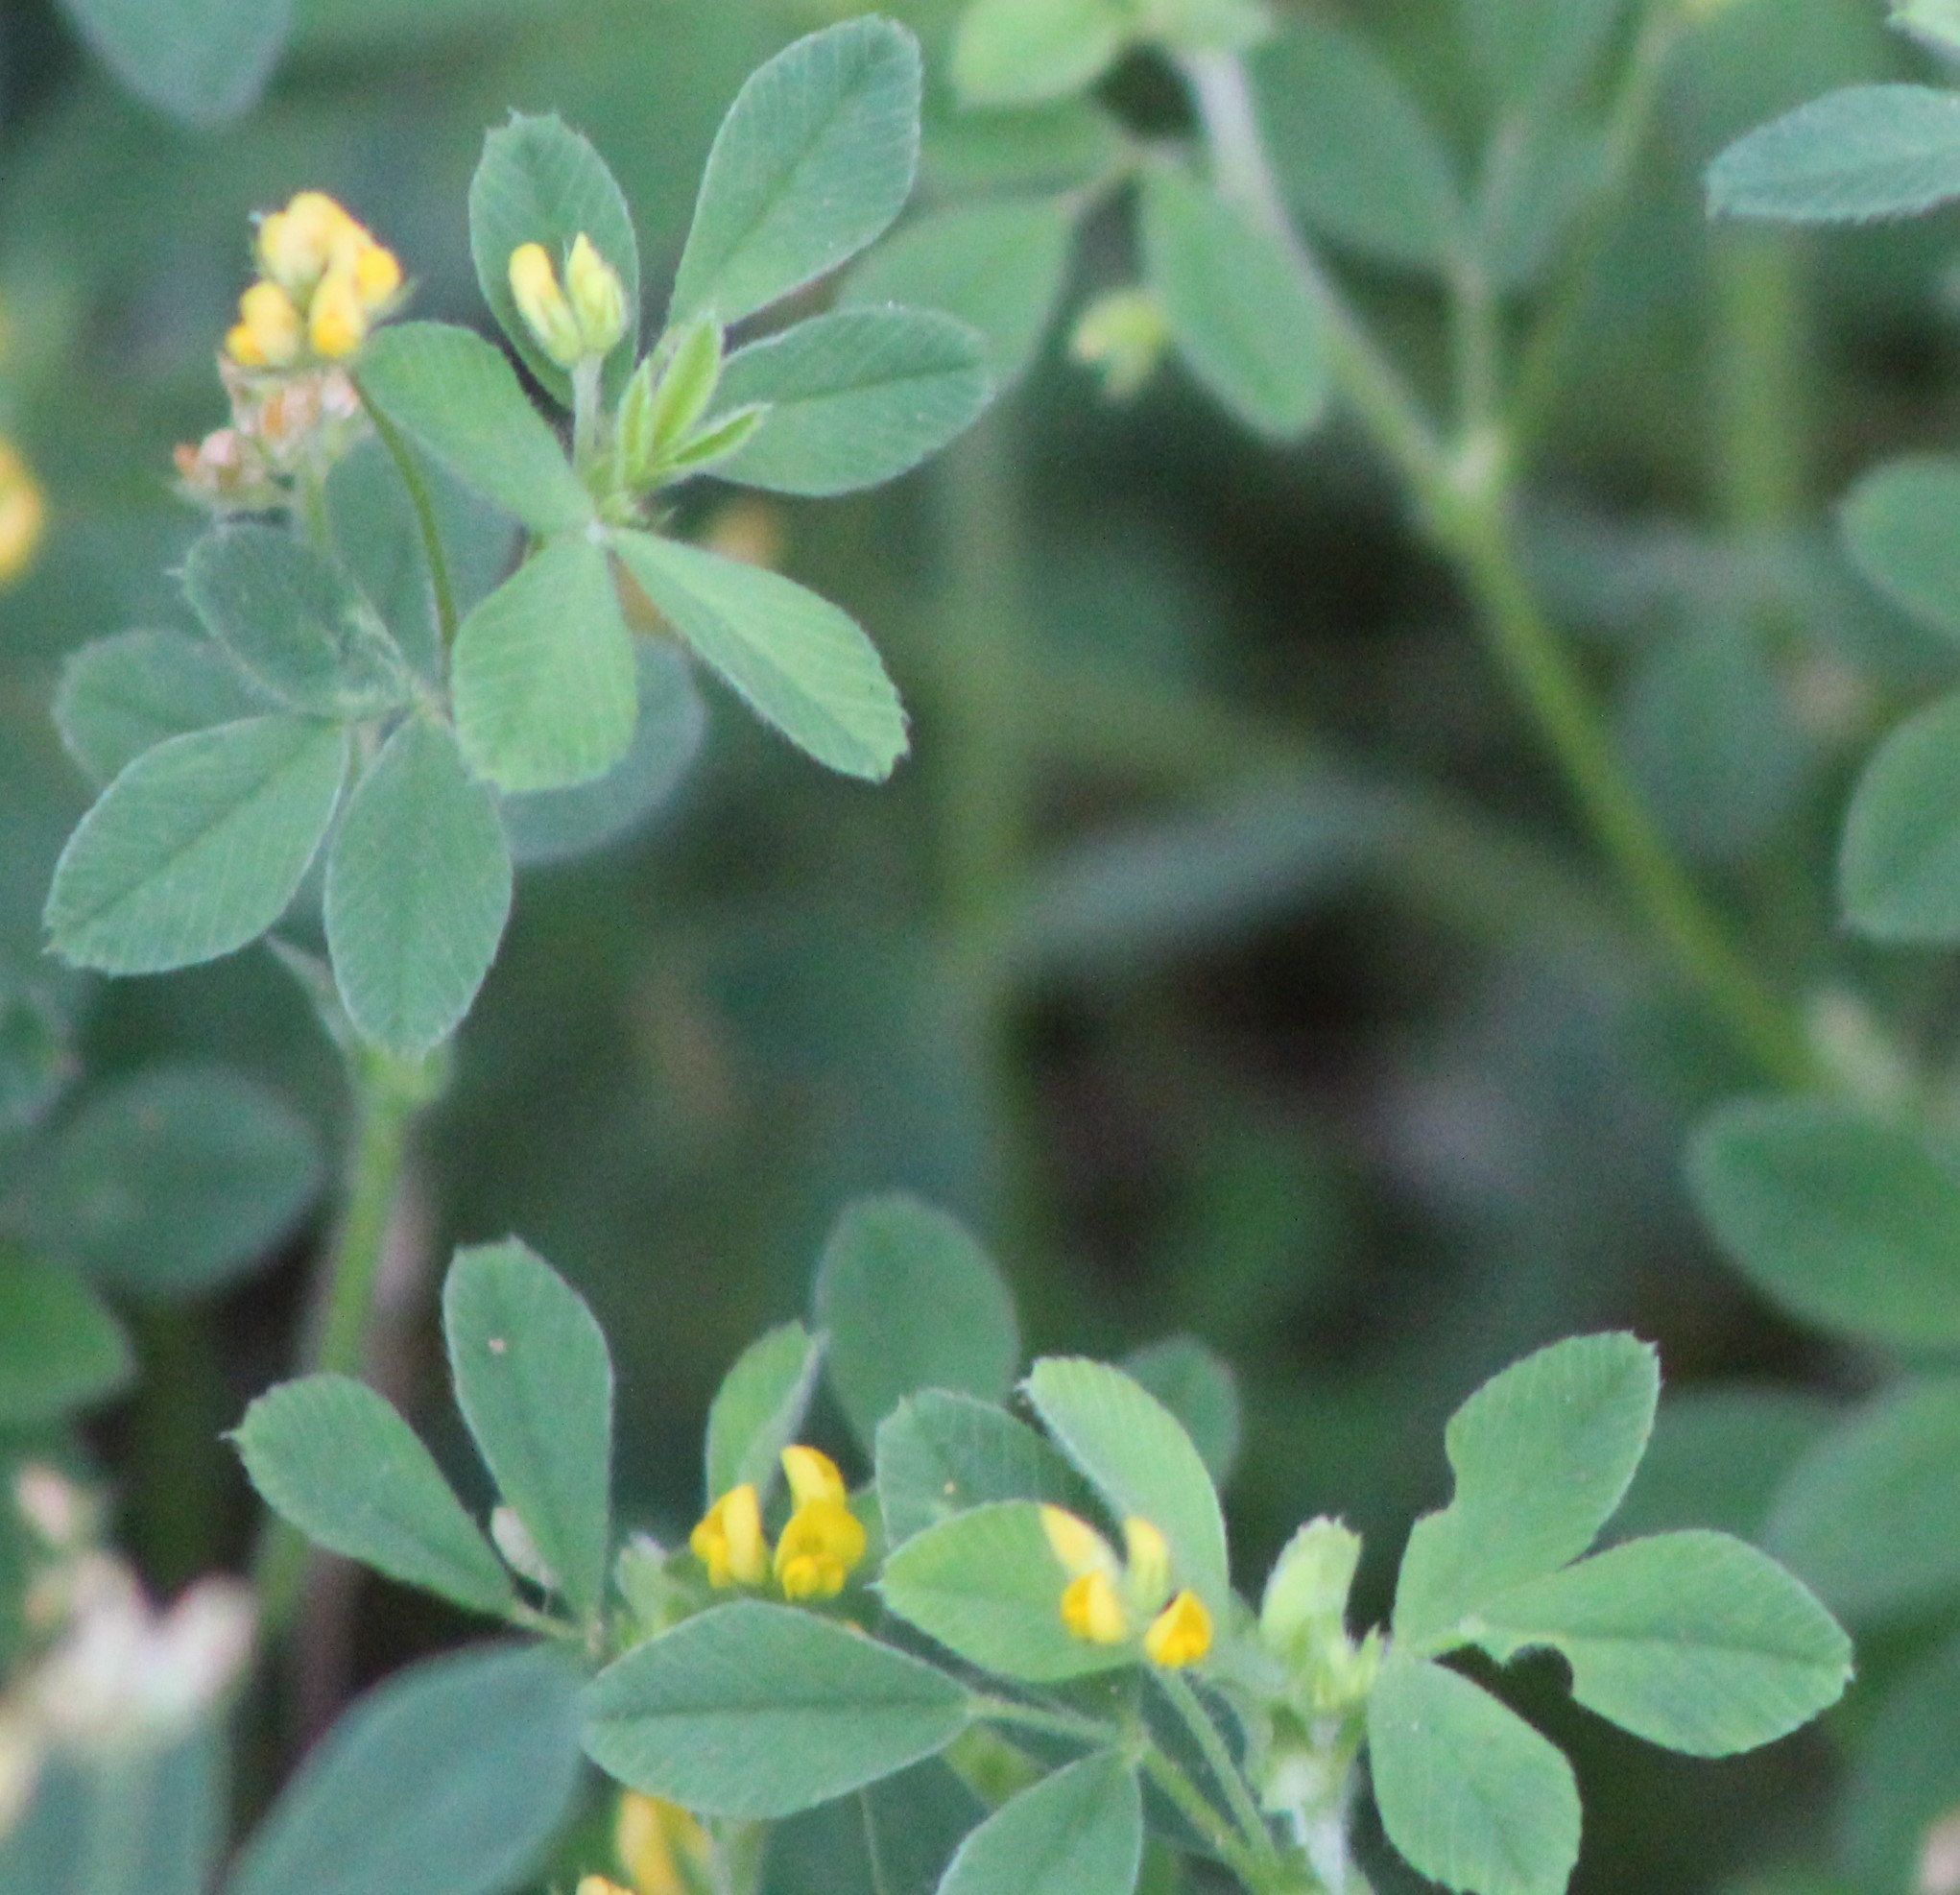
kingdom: Plantae
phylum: Tracheophyta
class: Magnoliopsida
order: Fabales
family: Fabaceae
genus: Medicago
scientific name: Medicago minima
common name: Little bur-clover
